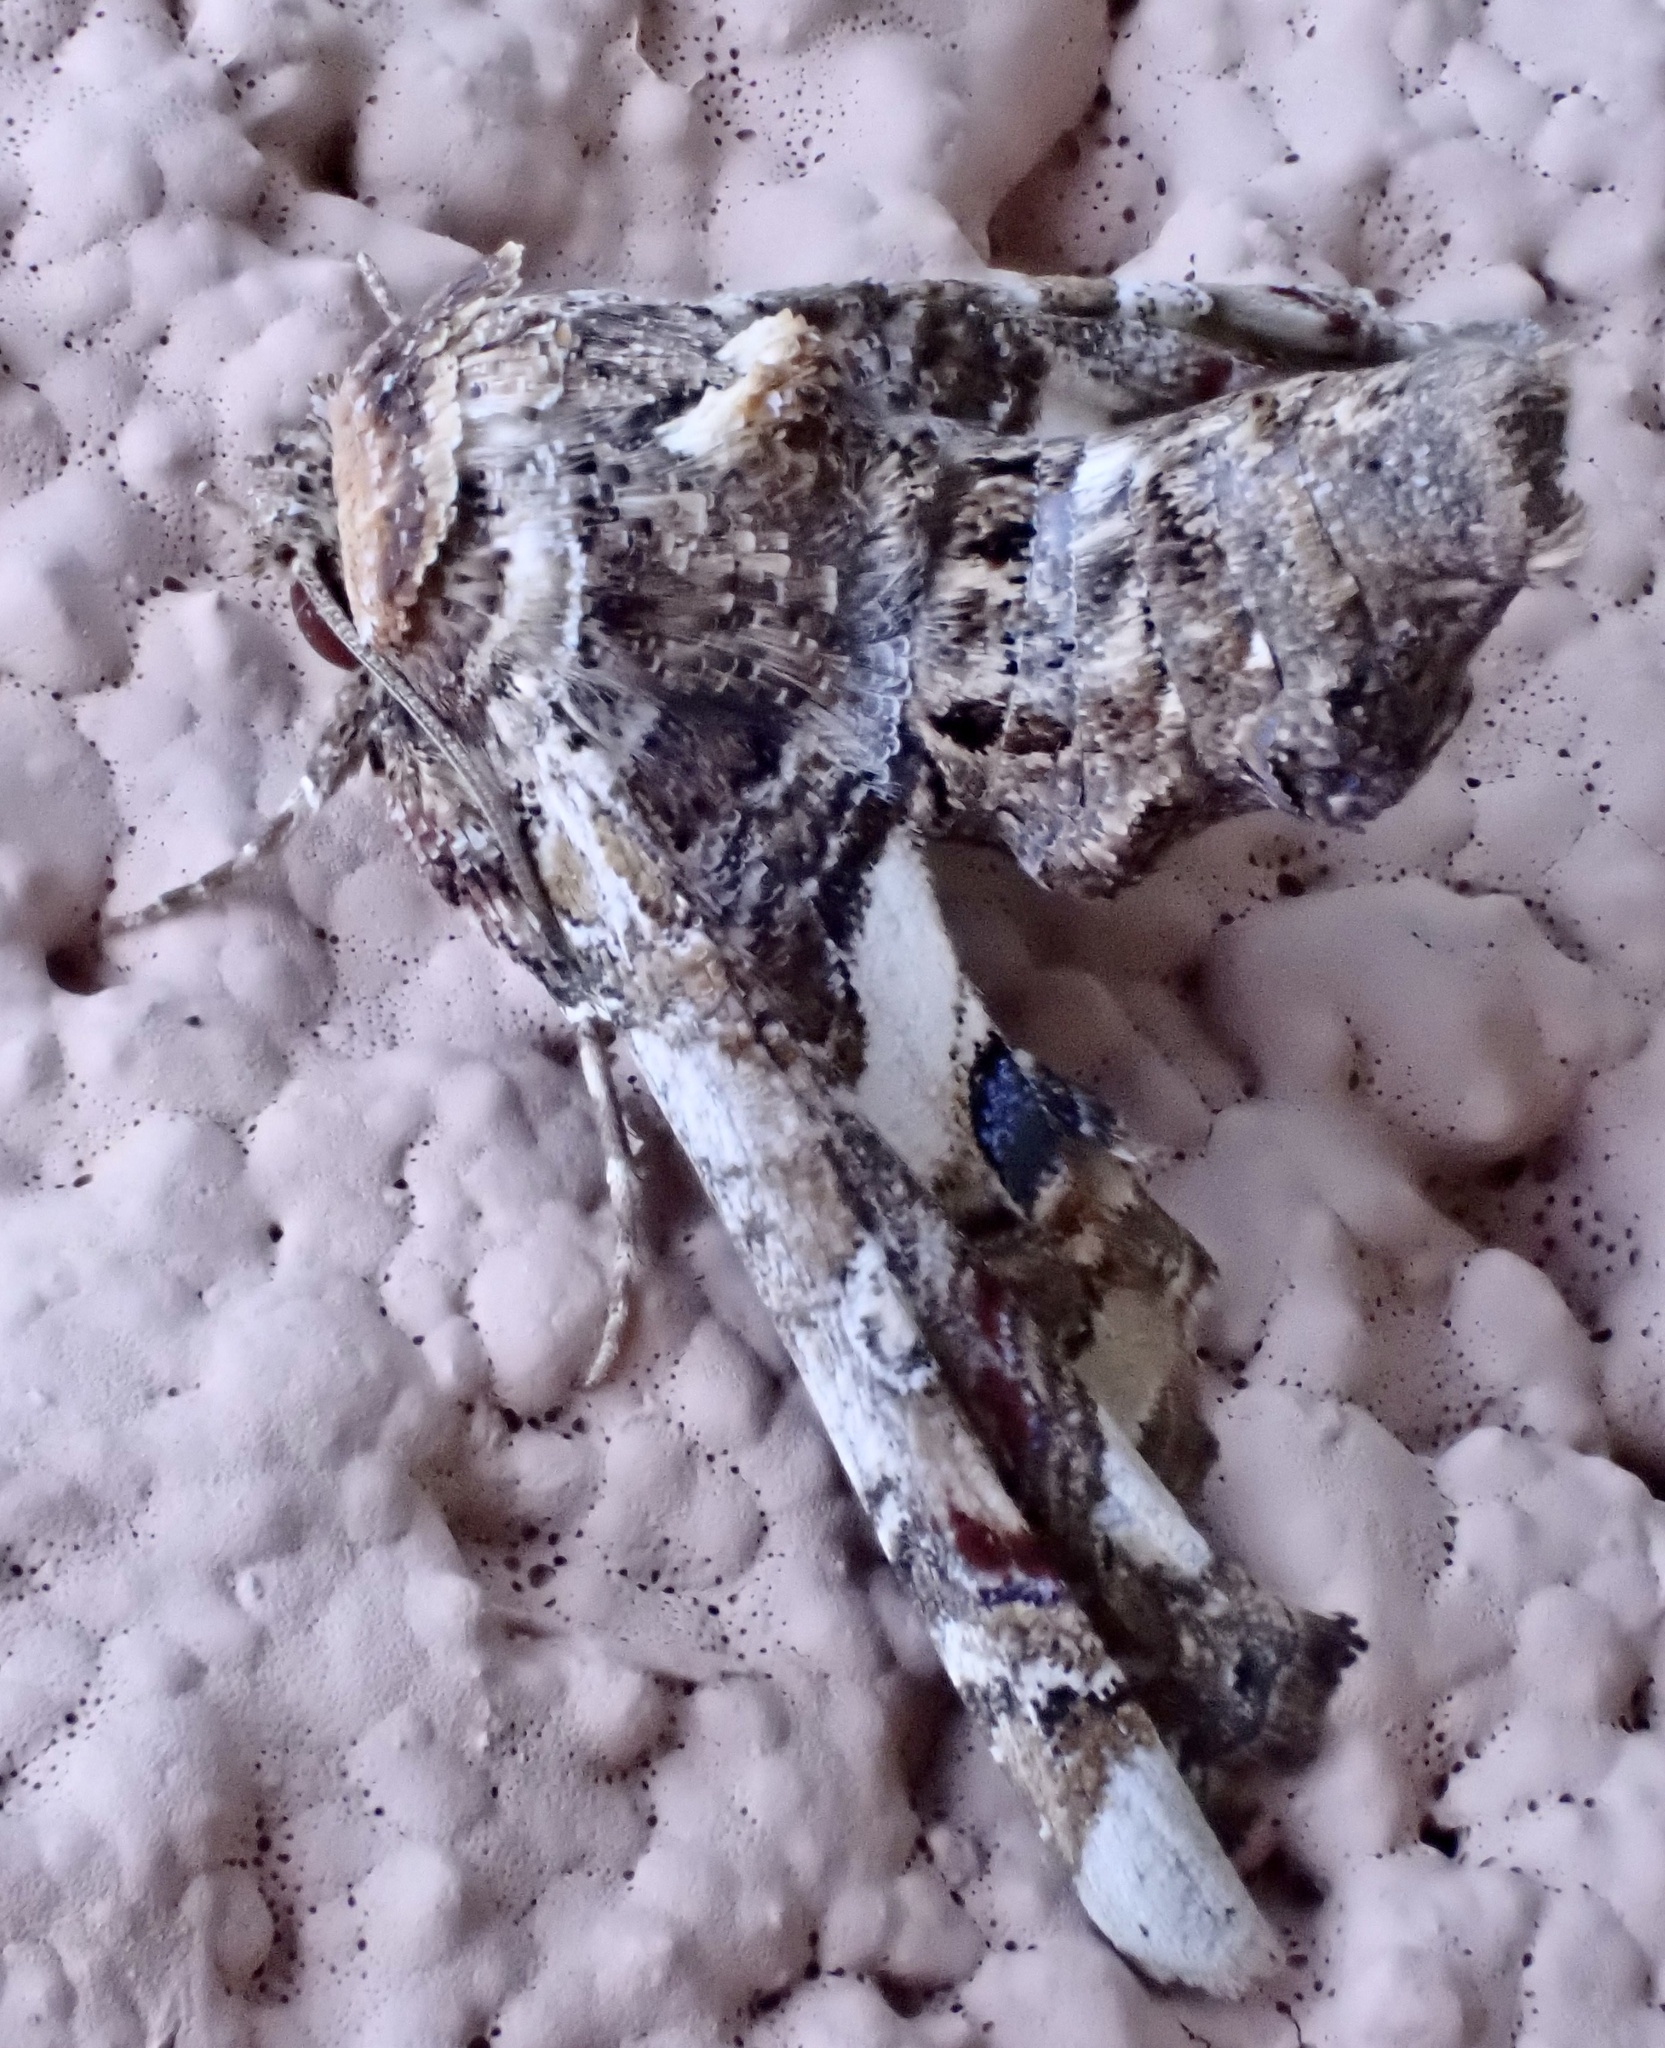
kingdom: Animalia
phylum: Arthropoda
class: Insecta
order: Lepidoptera
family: Euteliidae
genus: Eutelia
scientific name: Eutelia adulatrix
